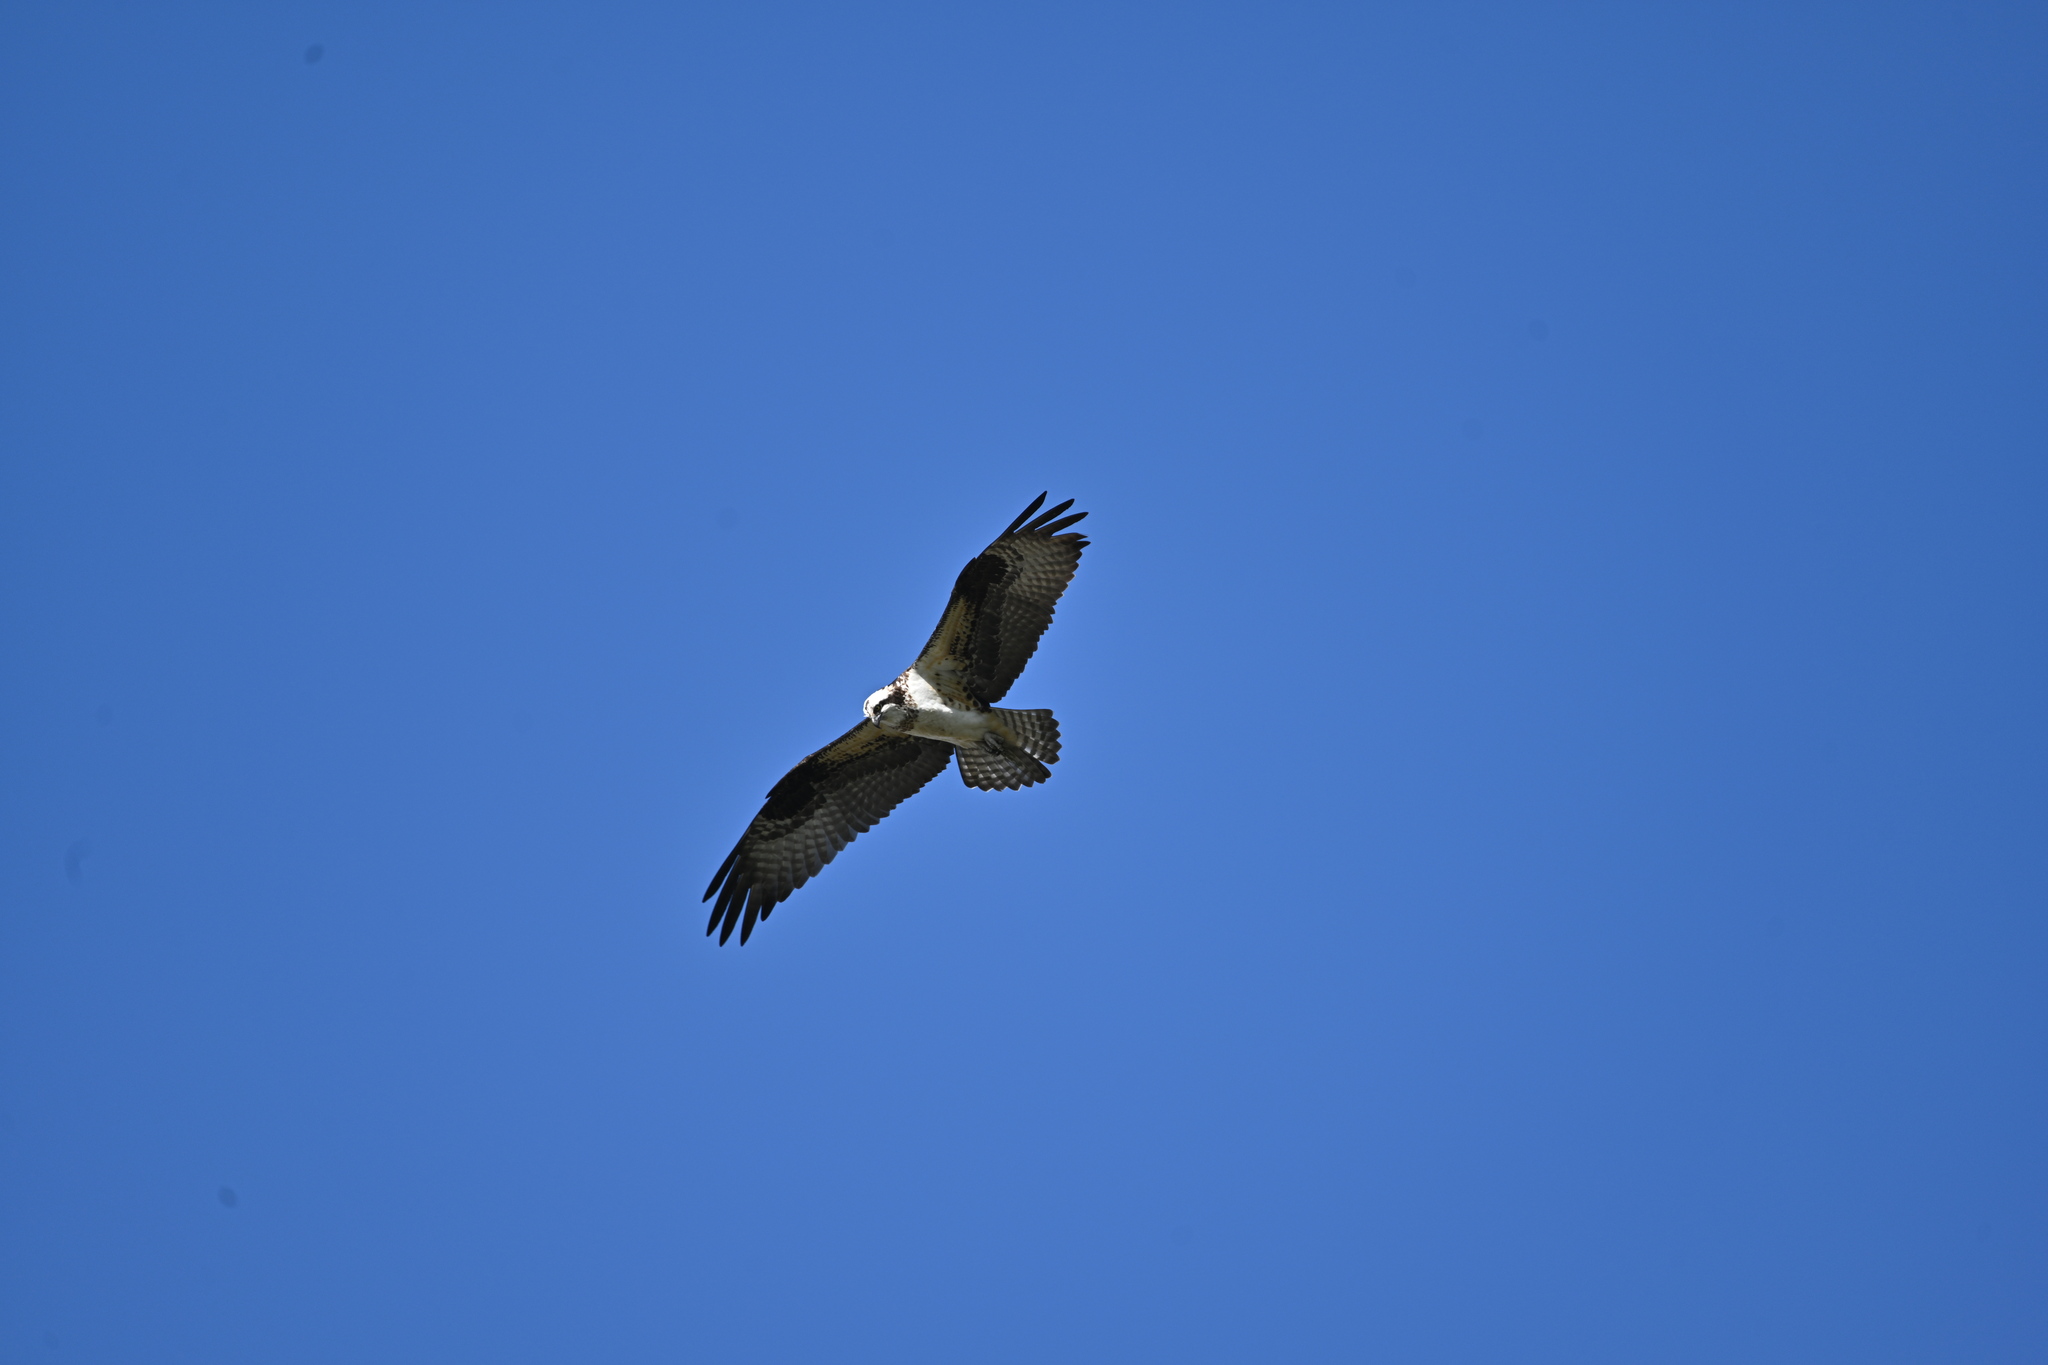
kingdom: Animalia
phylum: Chordata
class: Aves
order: Accipitriformes
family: Pandionidae
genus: Pandion
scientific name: Pandion haliaetus
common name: Osprey
